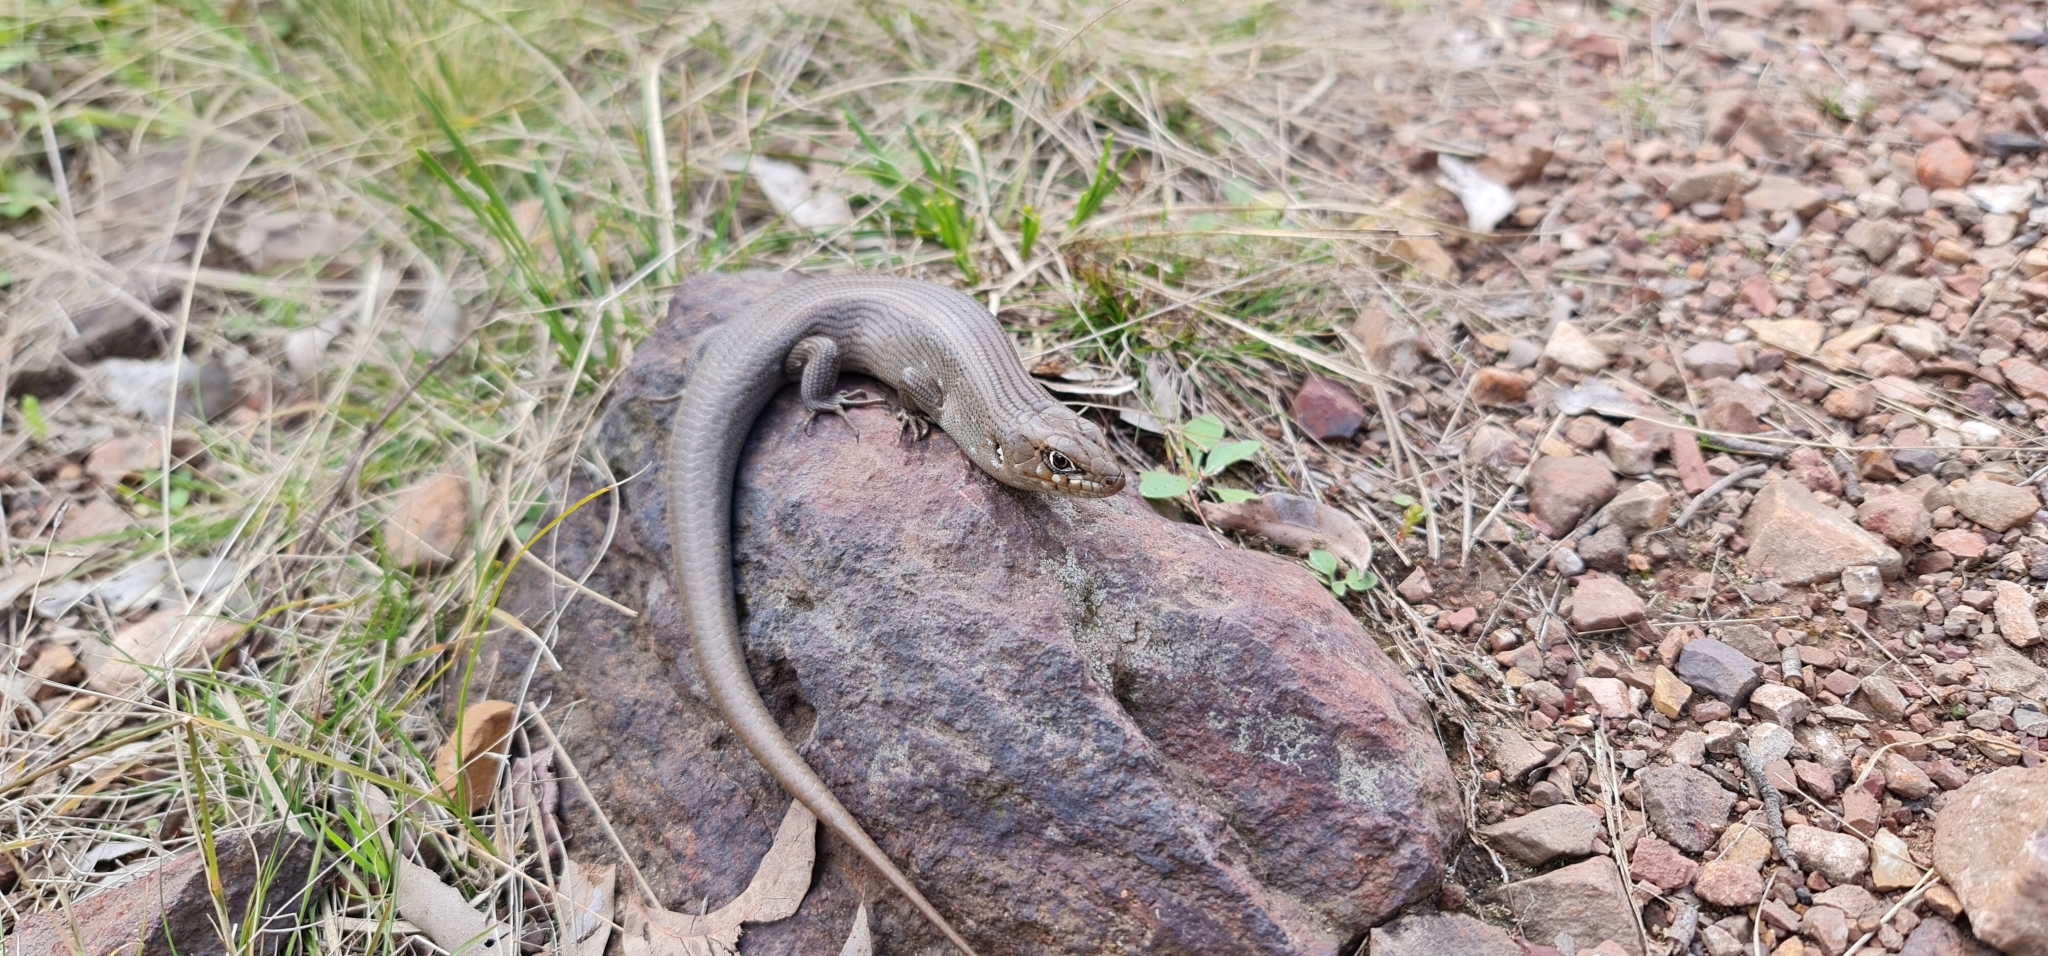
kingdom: Animalia
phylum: Chordata
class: Squamata
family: Scincidae
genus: Liopholis
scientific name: Liopholis modesta
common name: Eastern ranges rock-skink
